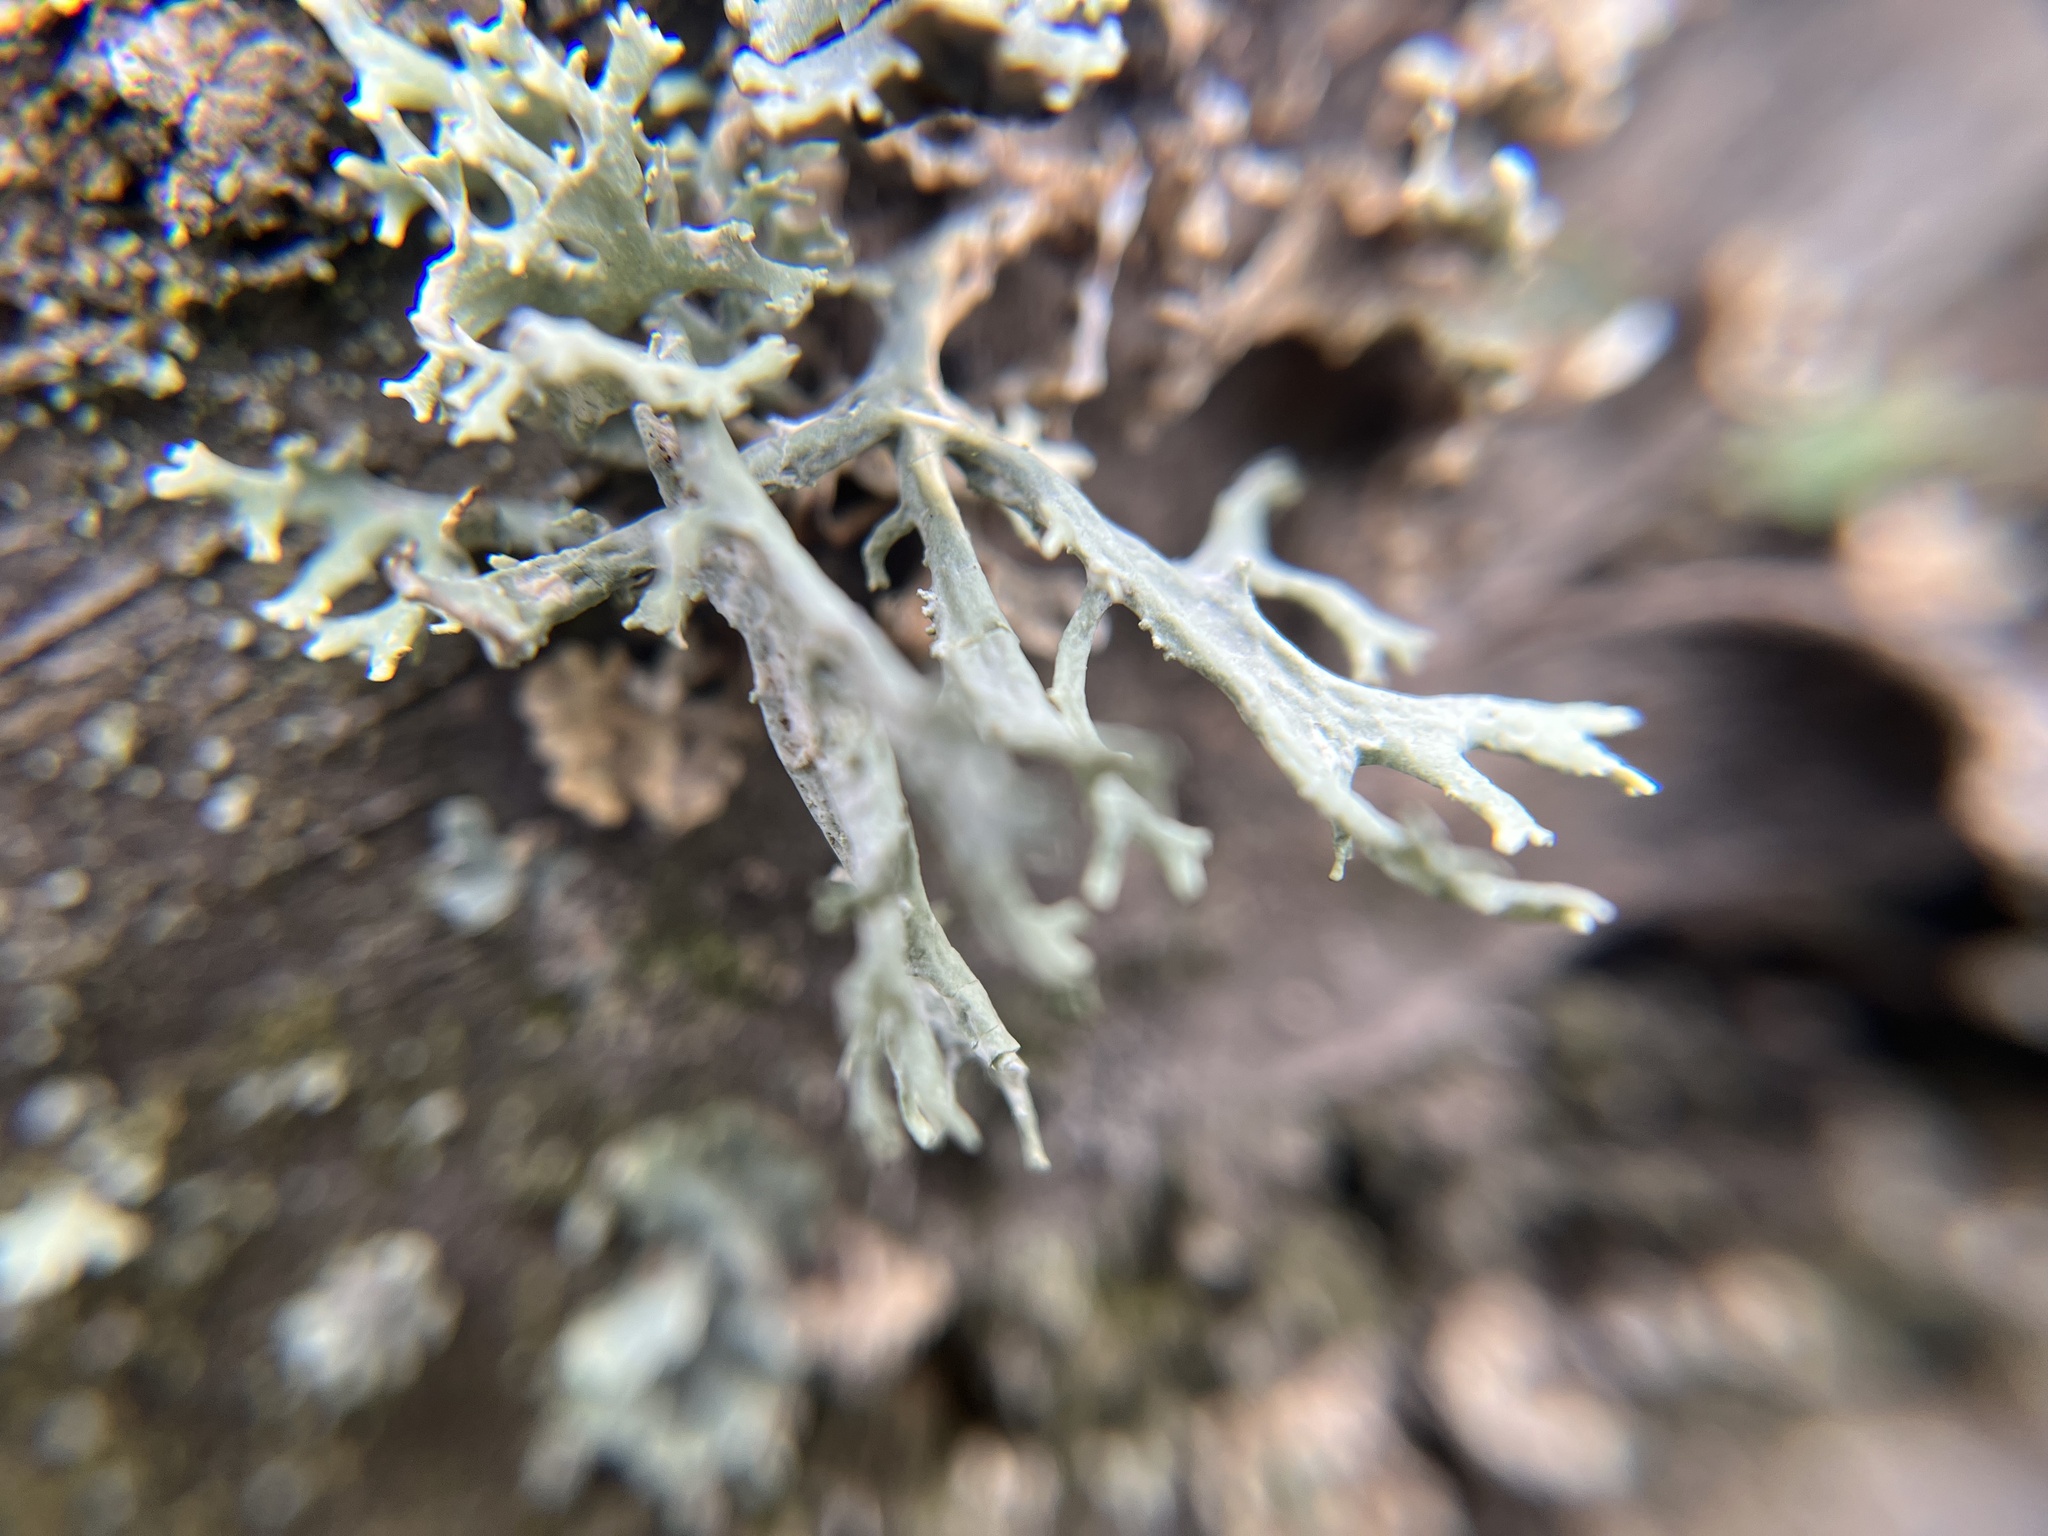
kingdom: Fungi
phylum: Ascomycota
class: Lecanoromycetes
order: Lecanorales
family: Parmeliaceae
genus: Evernia
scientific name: Evernia prunastri
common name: Oak moss
